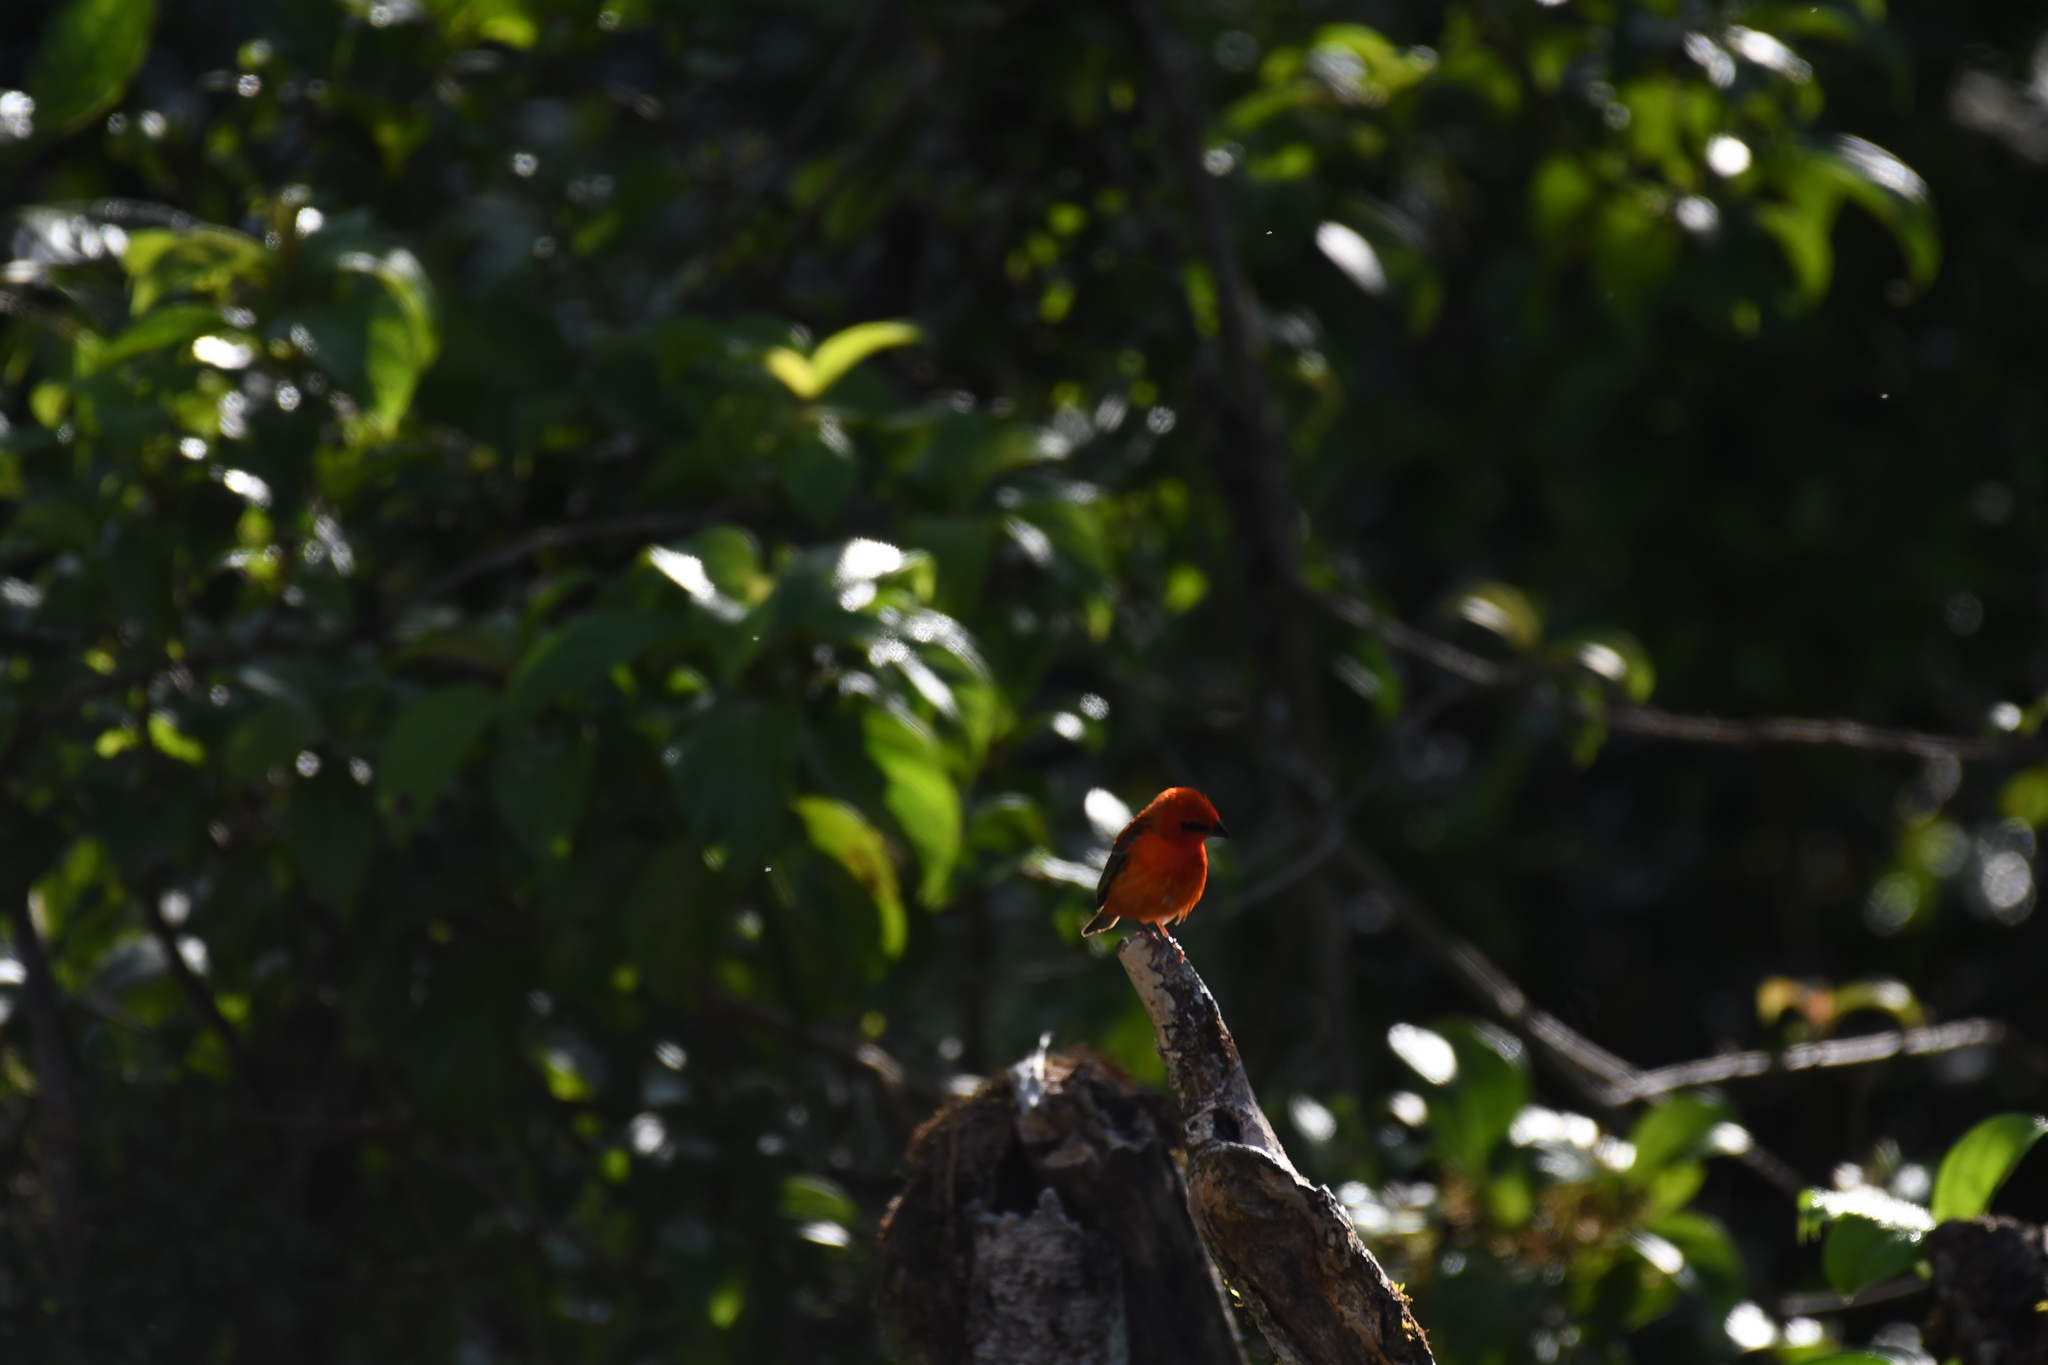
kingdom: Animalia
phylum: Chordata
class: Aves
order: Passeriformes
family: Ploceidae
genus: Foudia
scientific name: Foudia madagascariensis
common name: Red fody
